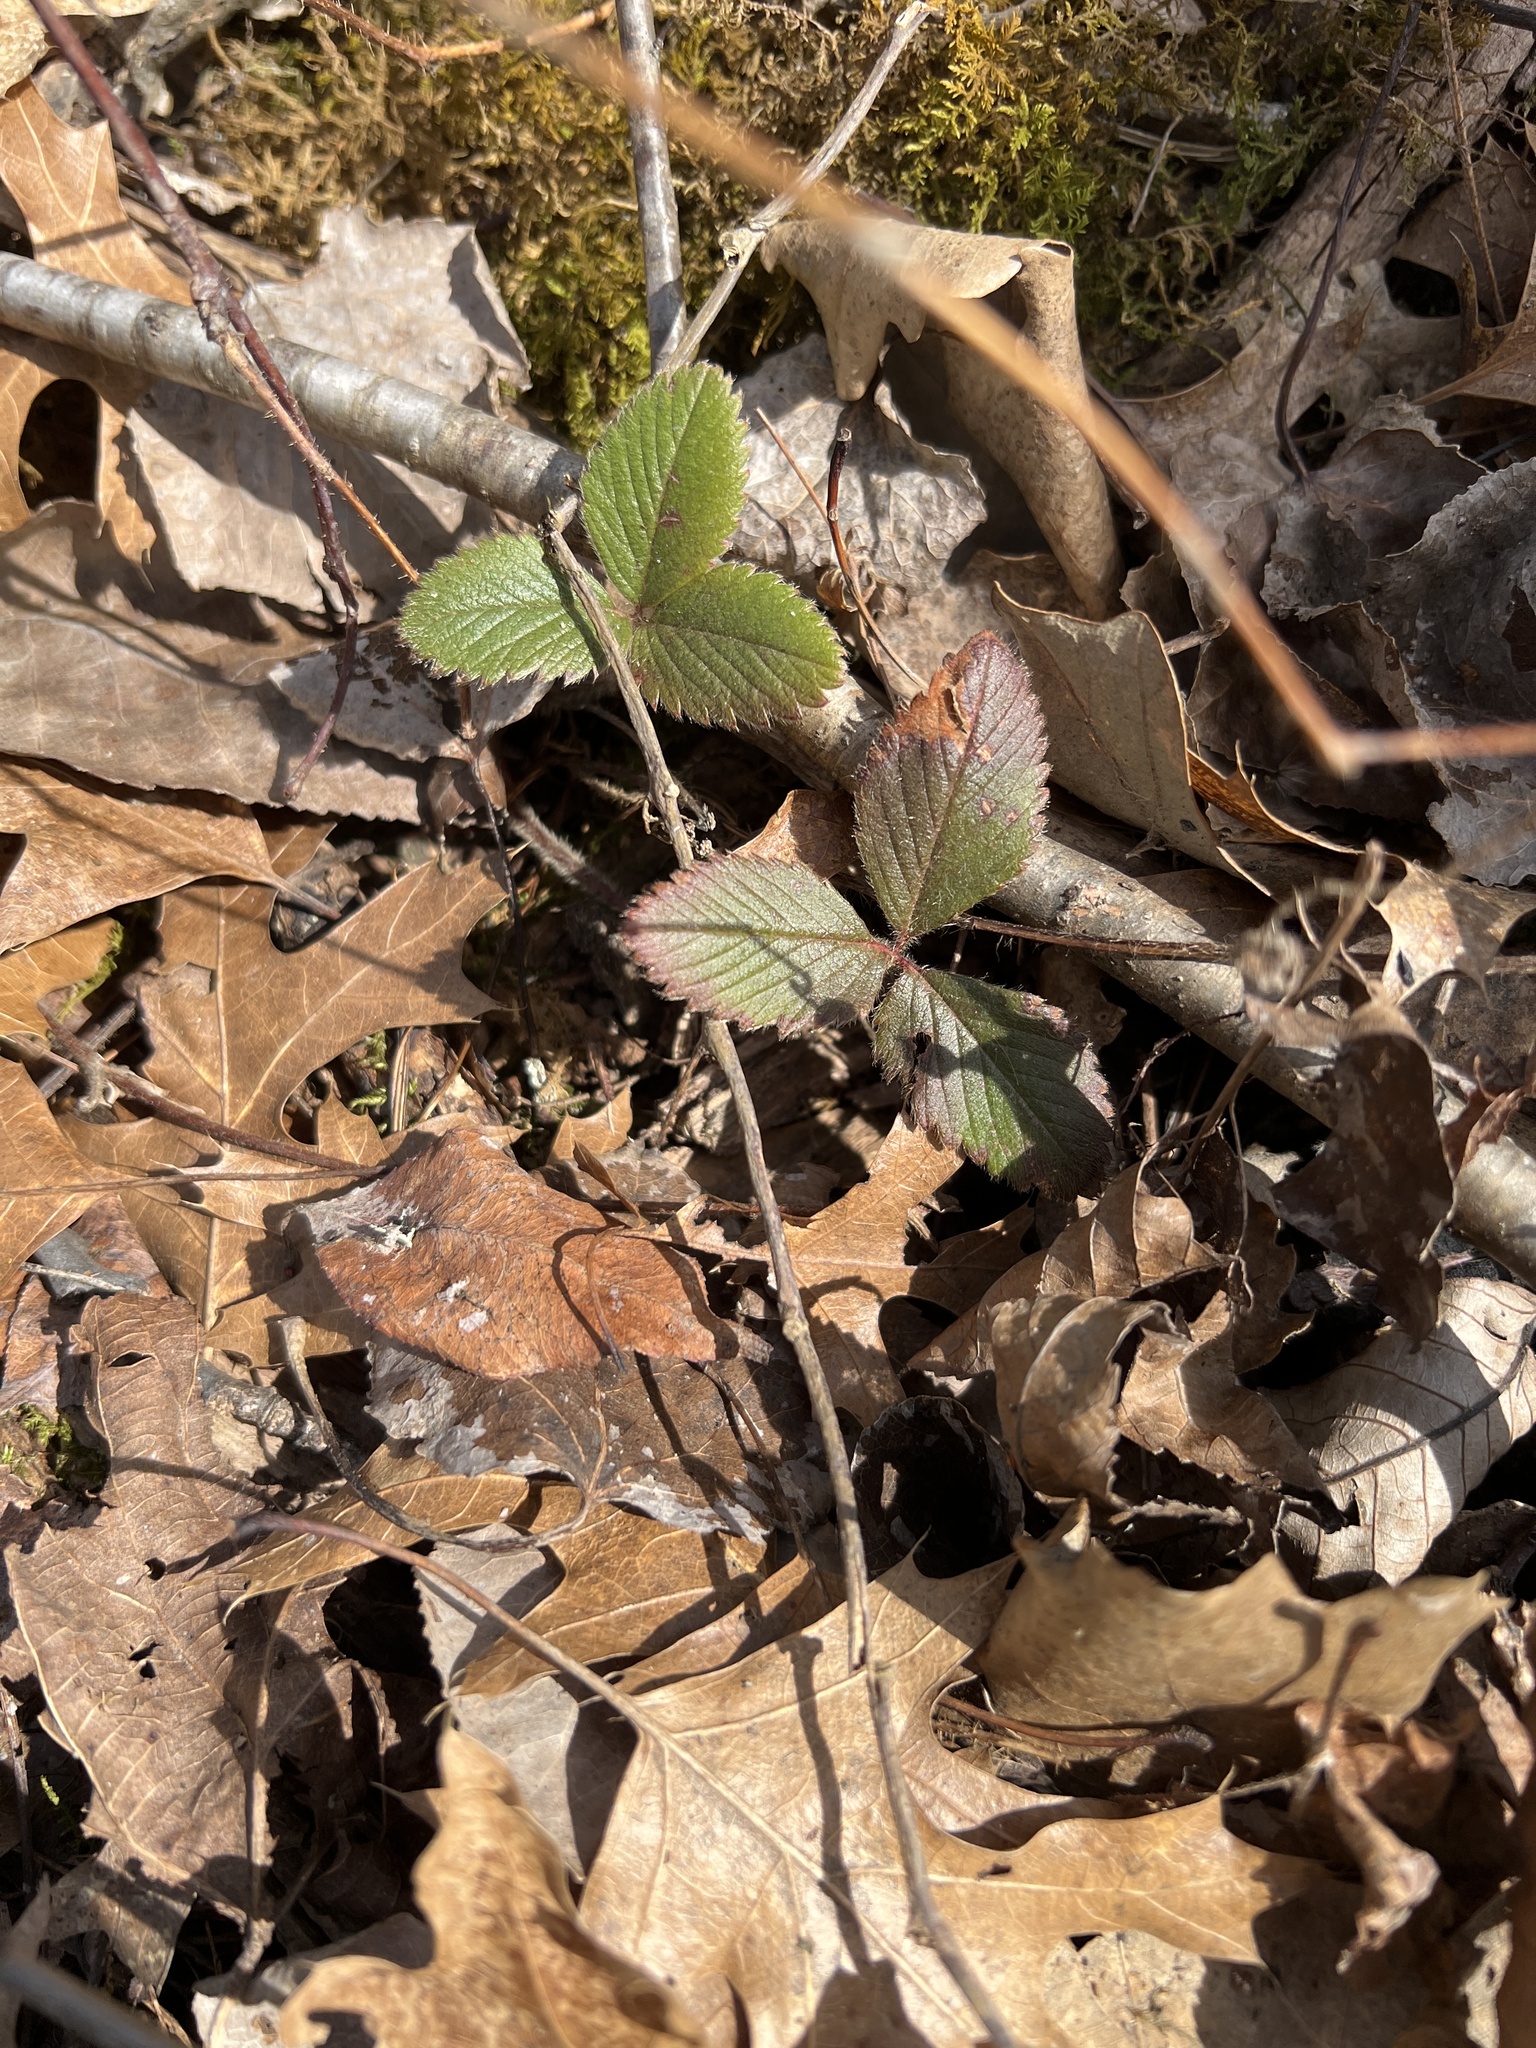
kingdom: Plantae
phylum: Tracheophyta
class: Magnoliopsida
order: Rosales
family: Rosaceae
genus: Fragaria
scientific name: Fragaria virginiana
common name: Thickleaved wild strawberry
